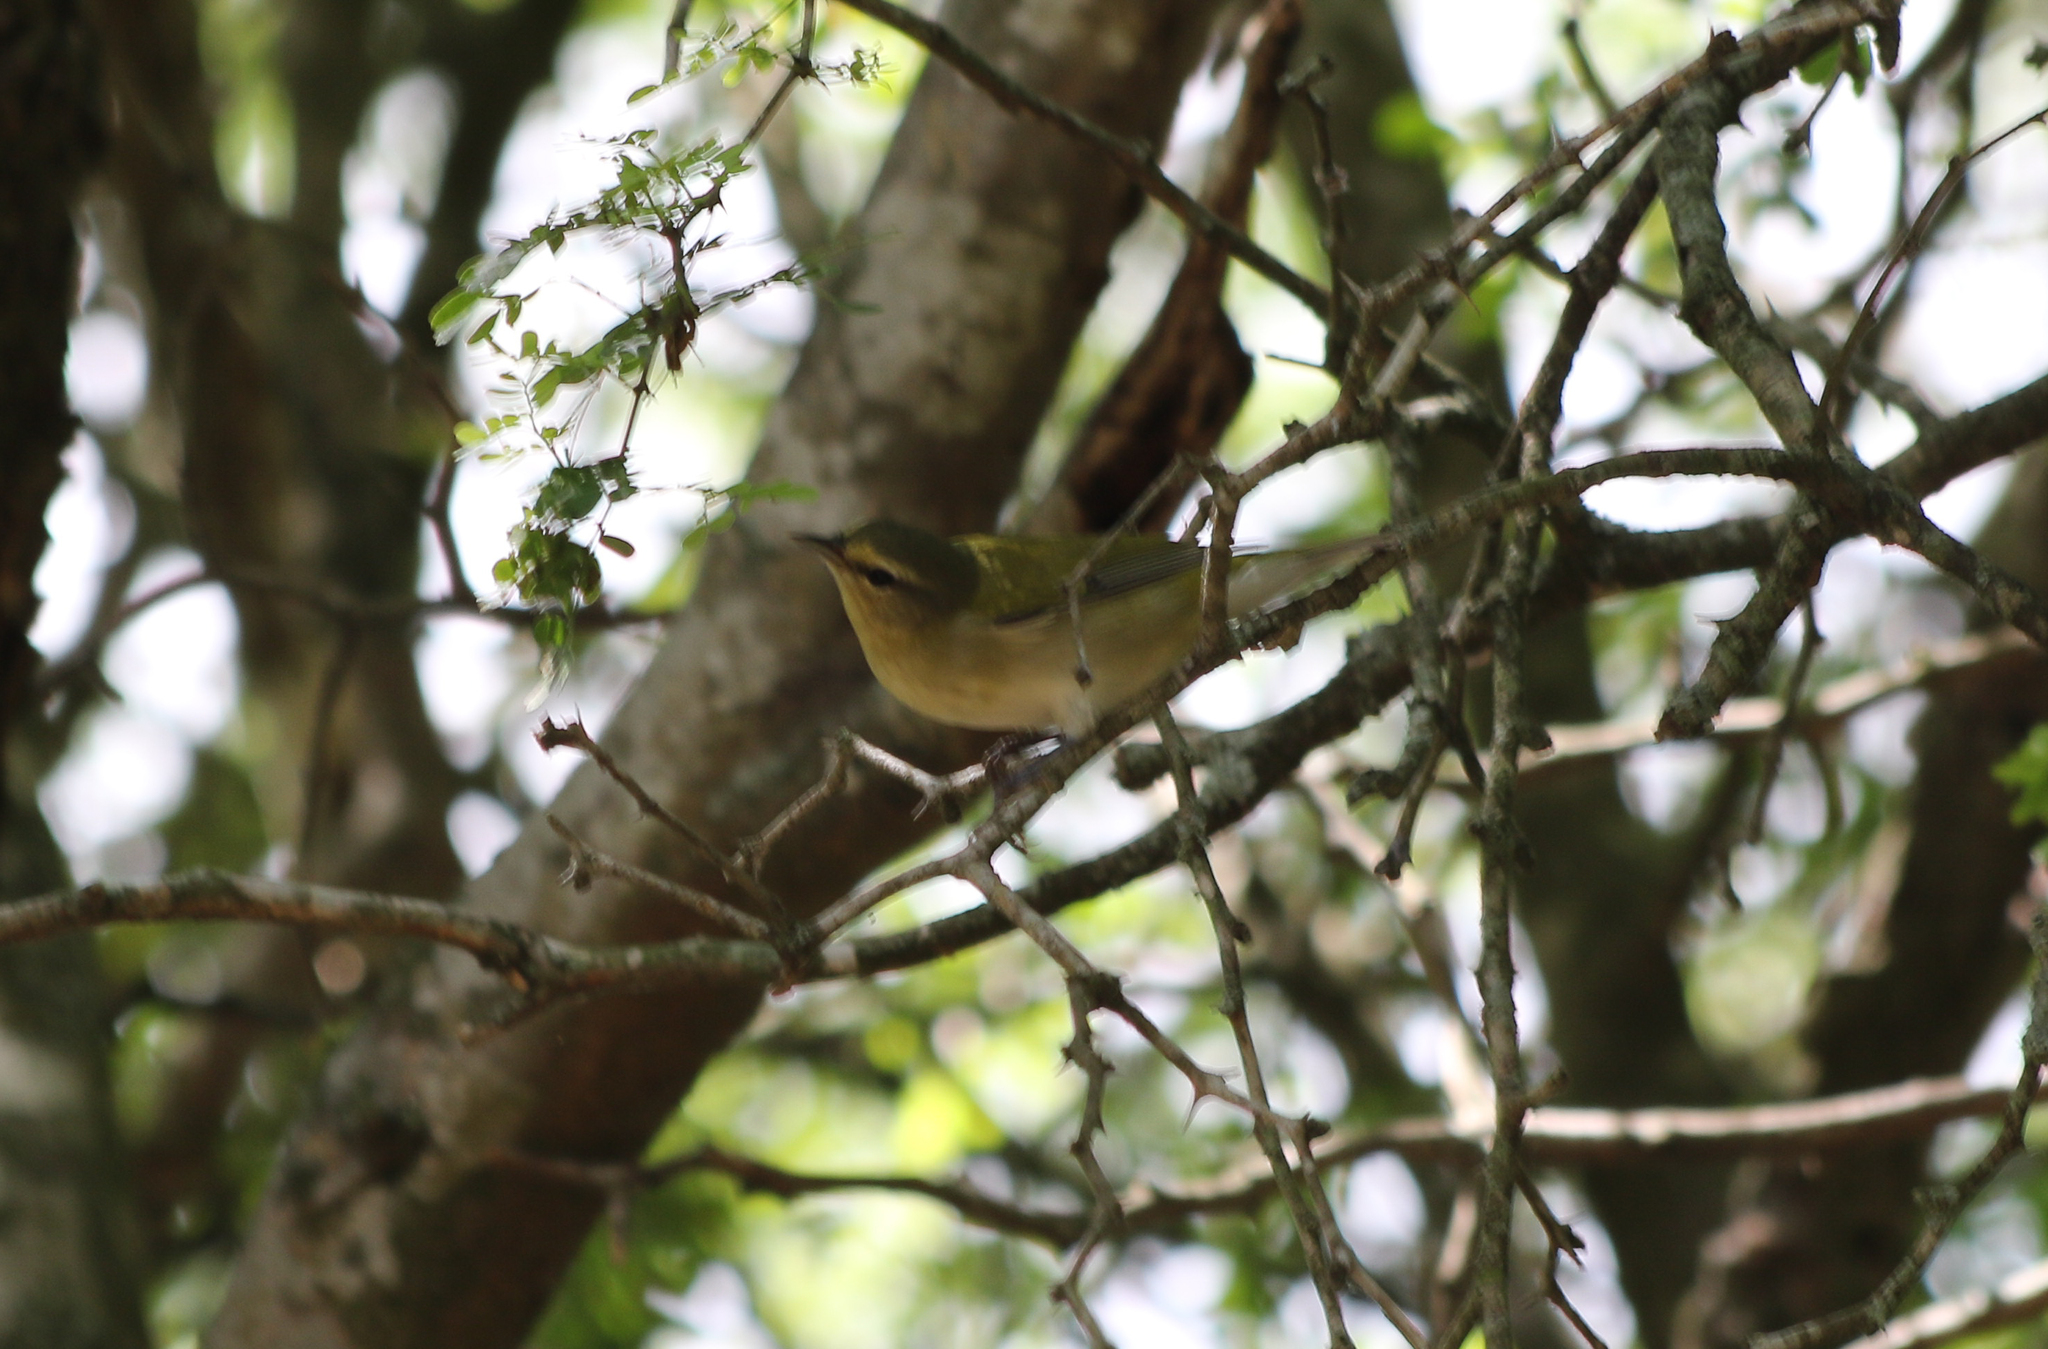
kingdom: Animalia
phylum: Chordata
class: Aves
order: Passeriformes
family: Parulidae
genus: Leiothlypis
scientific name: Leiothlypis peregrina
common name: Tennessee warbler
